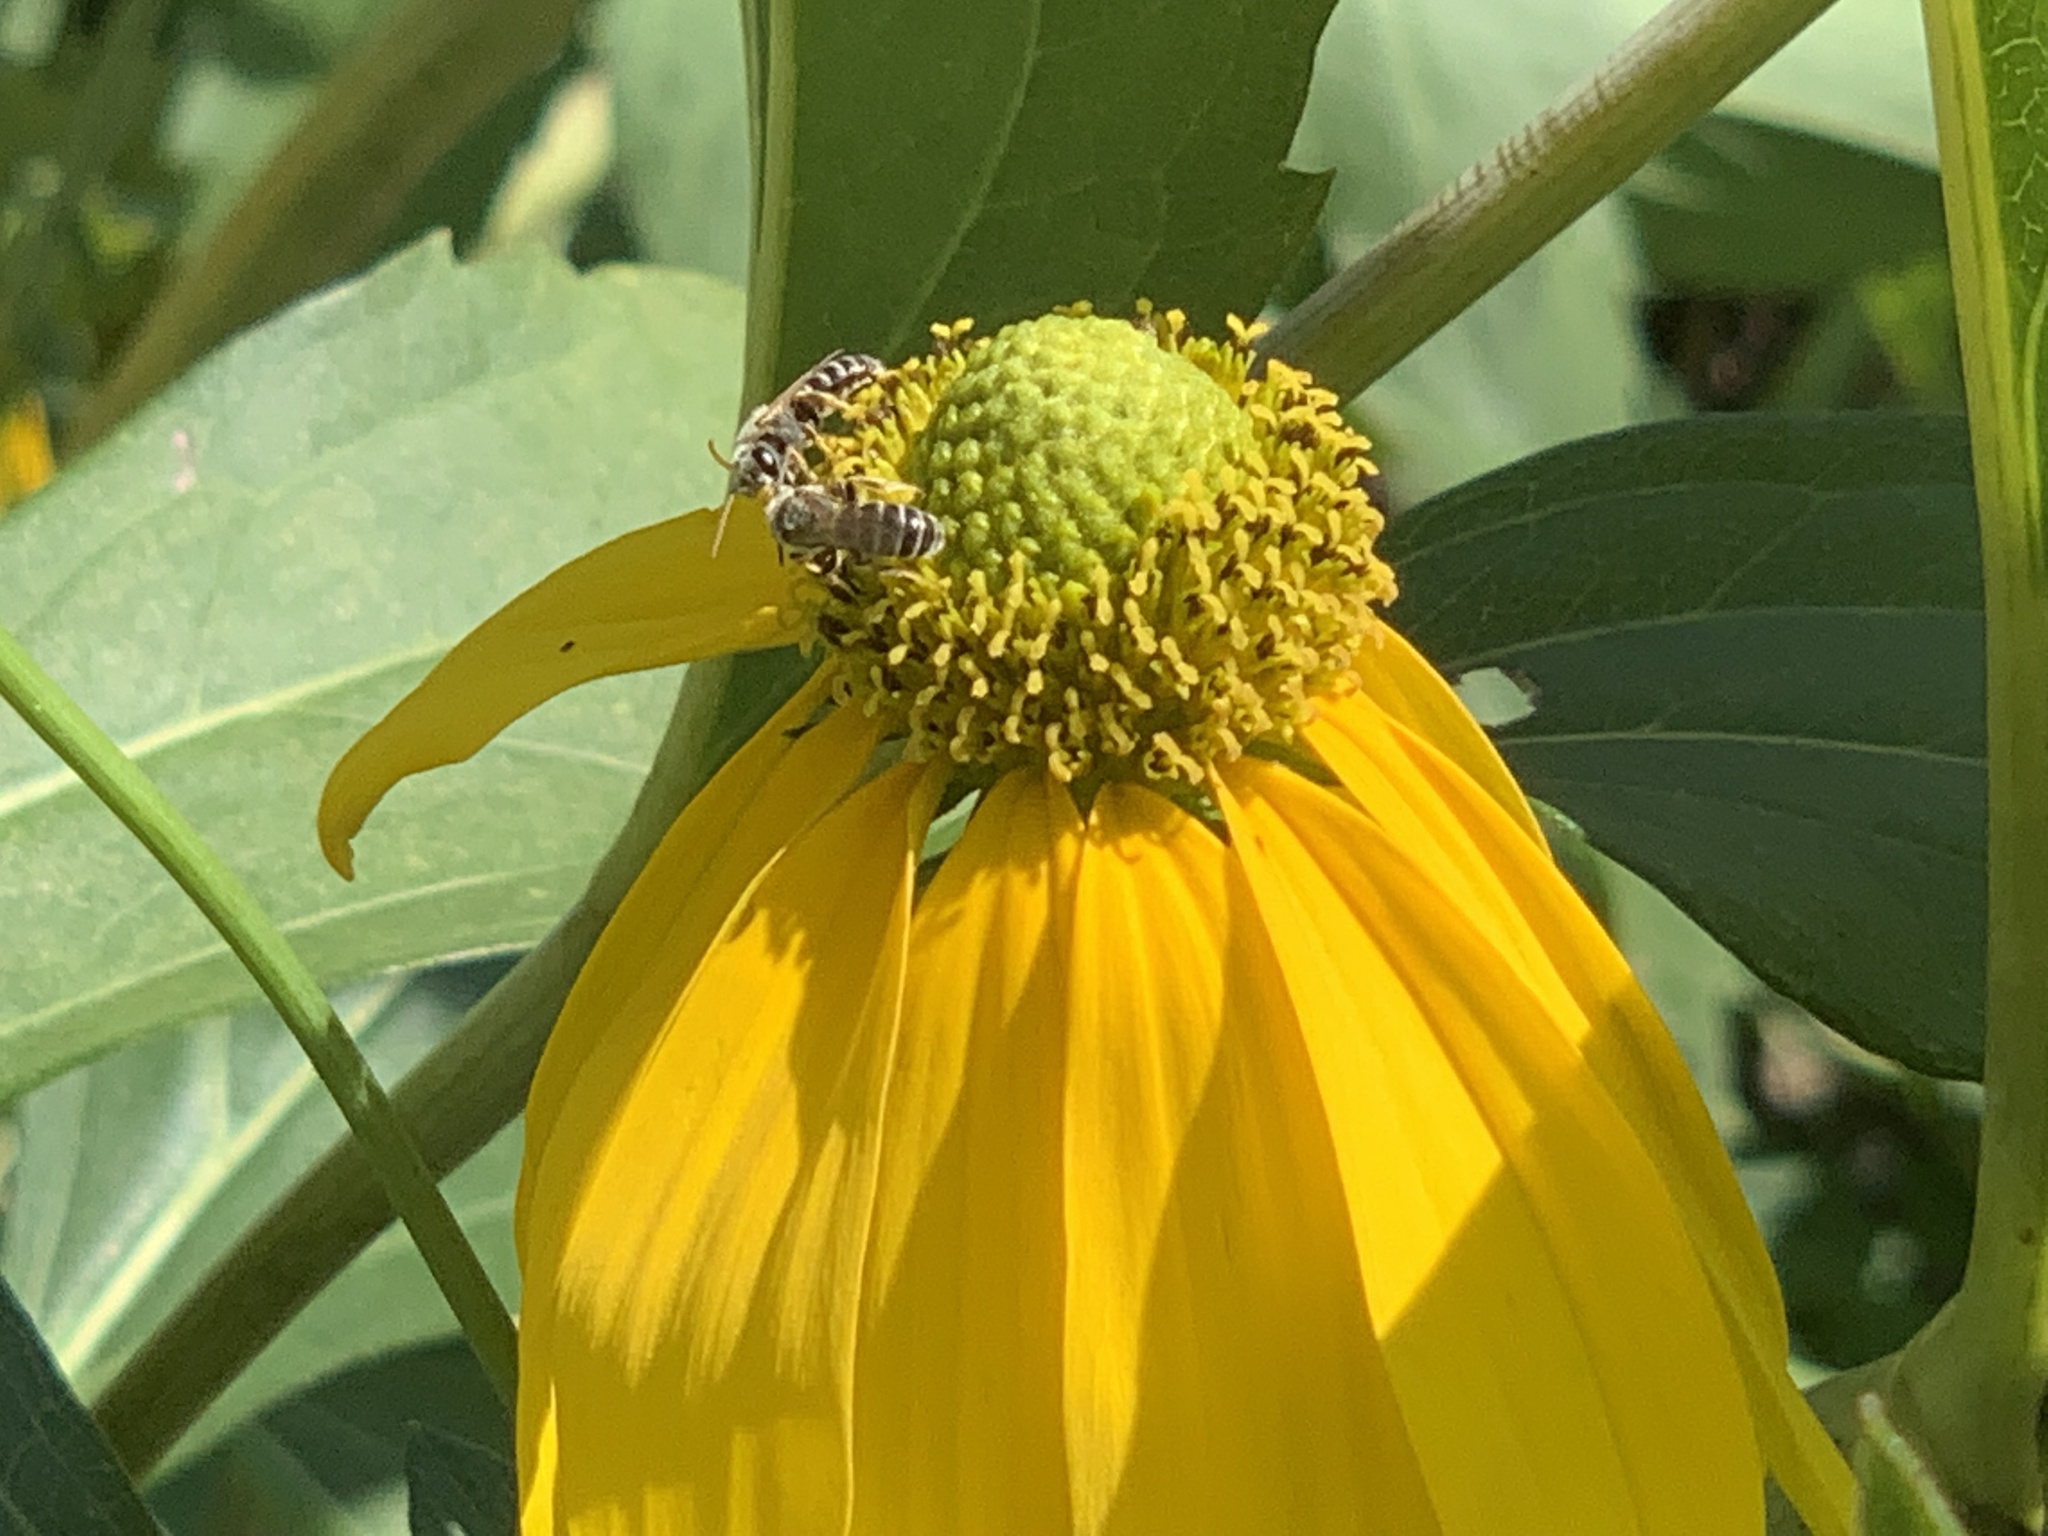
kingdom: Animalia
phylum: Arthropoda
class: Insecta
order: Hymenoptera
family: Halictidae
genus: Halictus
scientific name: Halictus ligatus
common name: Ligated furrow bee
